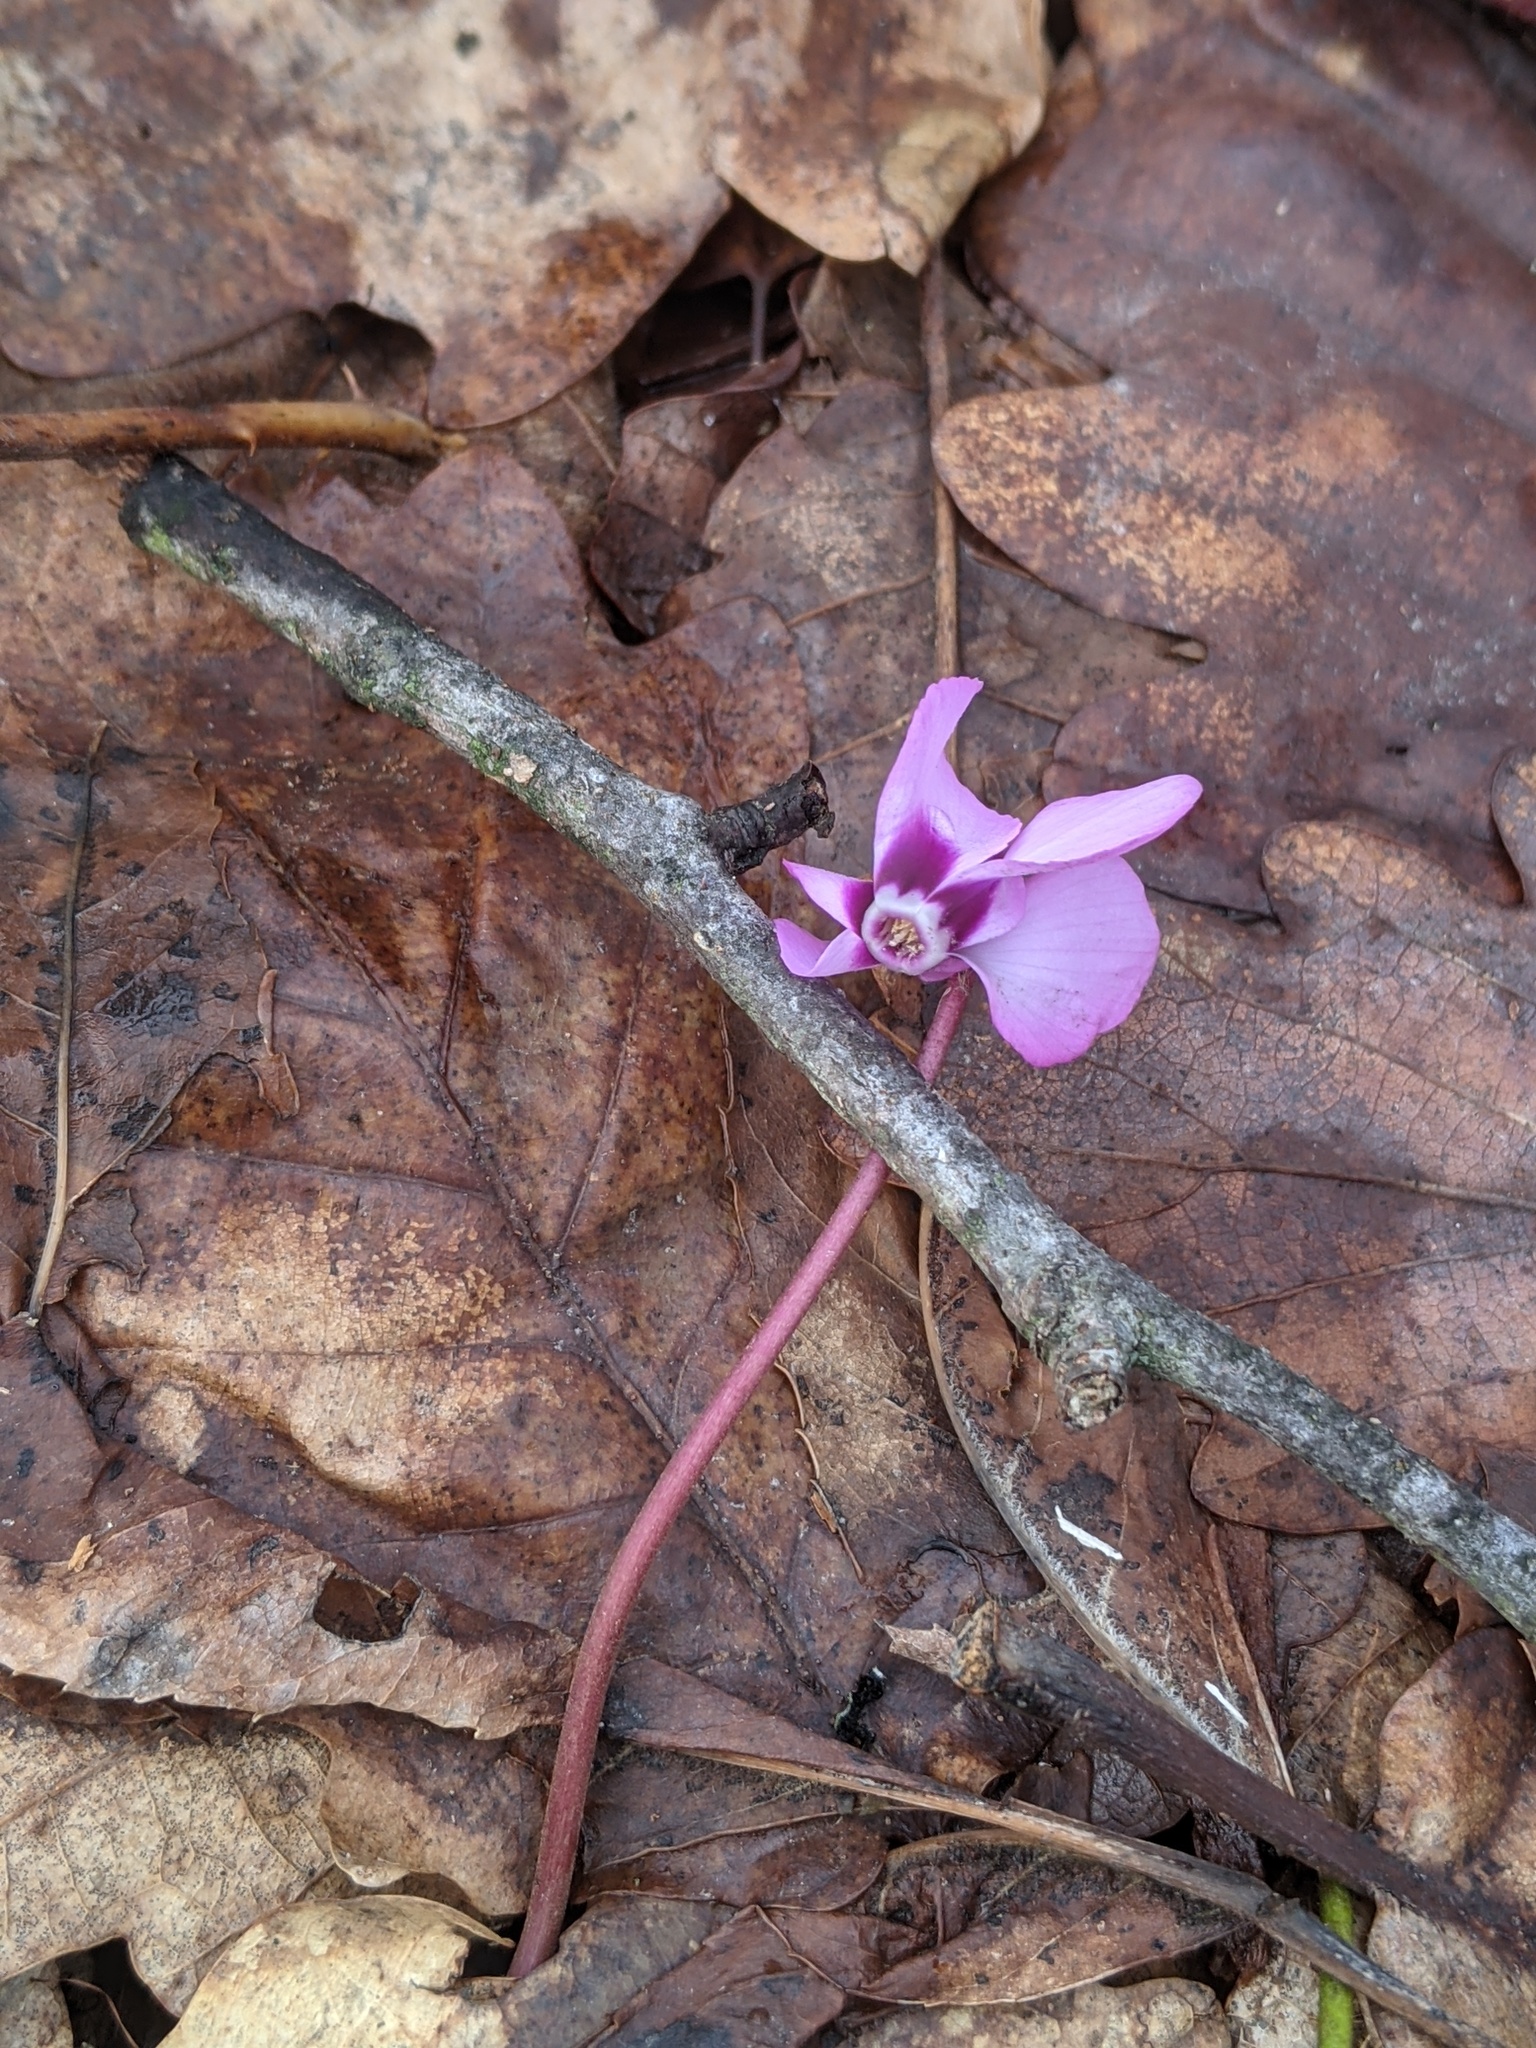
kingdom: Plantae
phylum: Tracheophyta
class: Magnoliopsida
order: Ericales
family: Primulaceae
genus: Cyclamen
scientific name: Cyclamen coum
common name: Eastern sowbread
